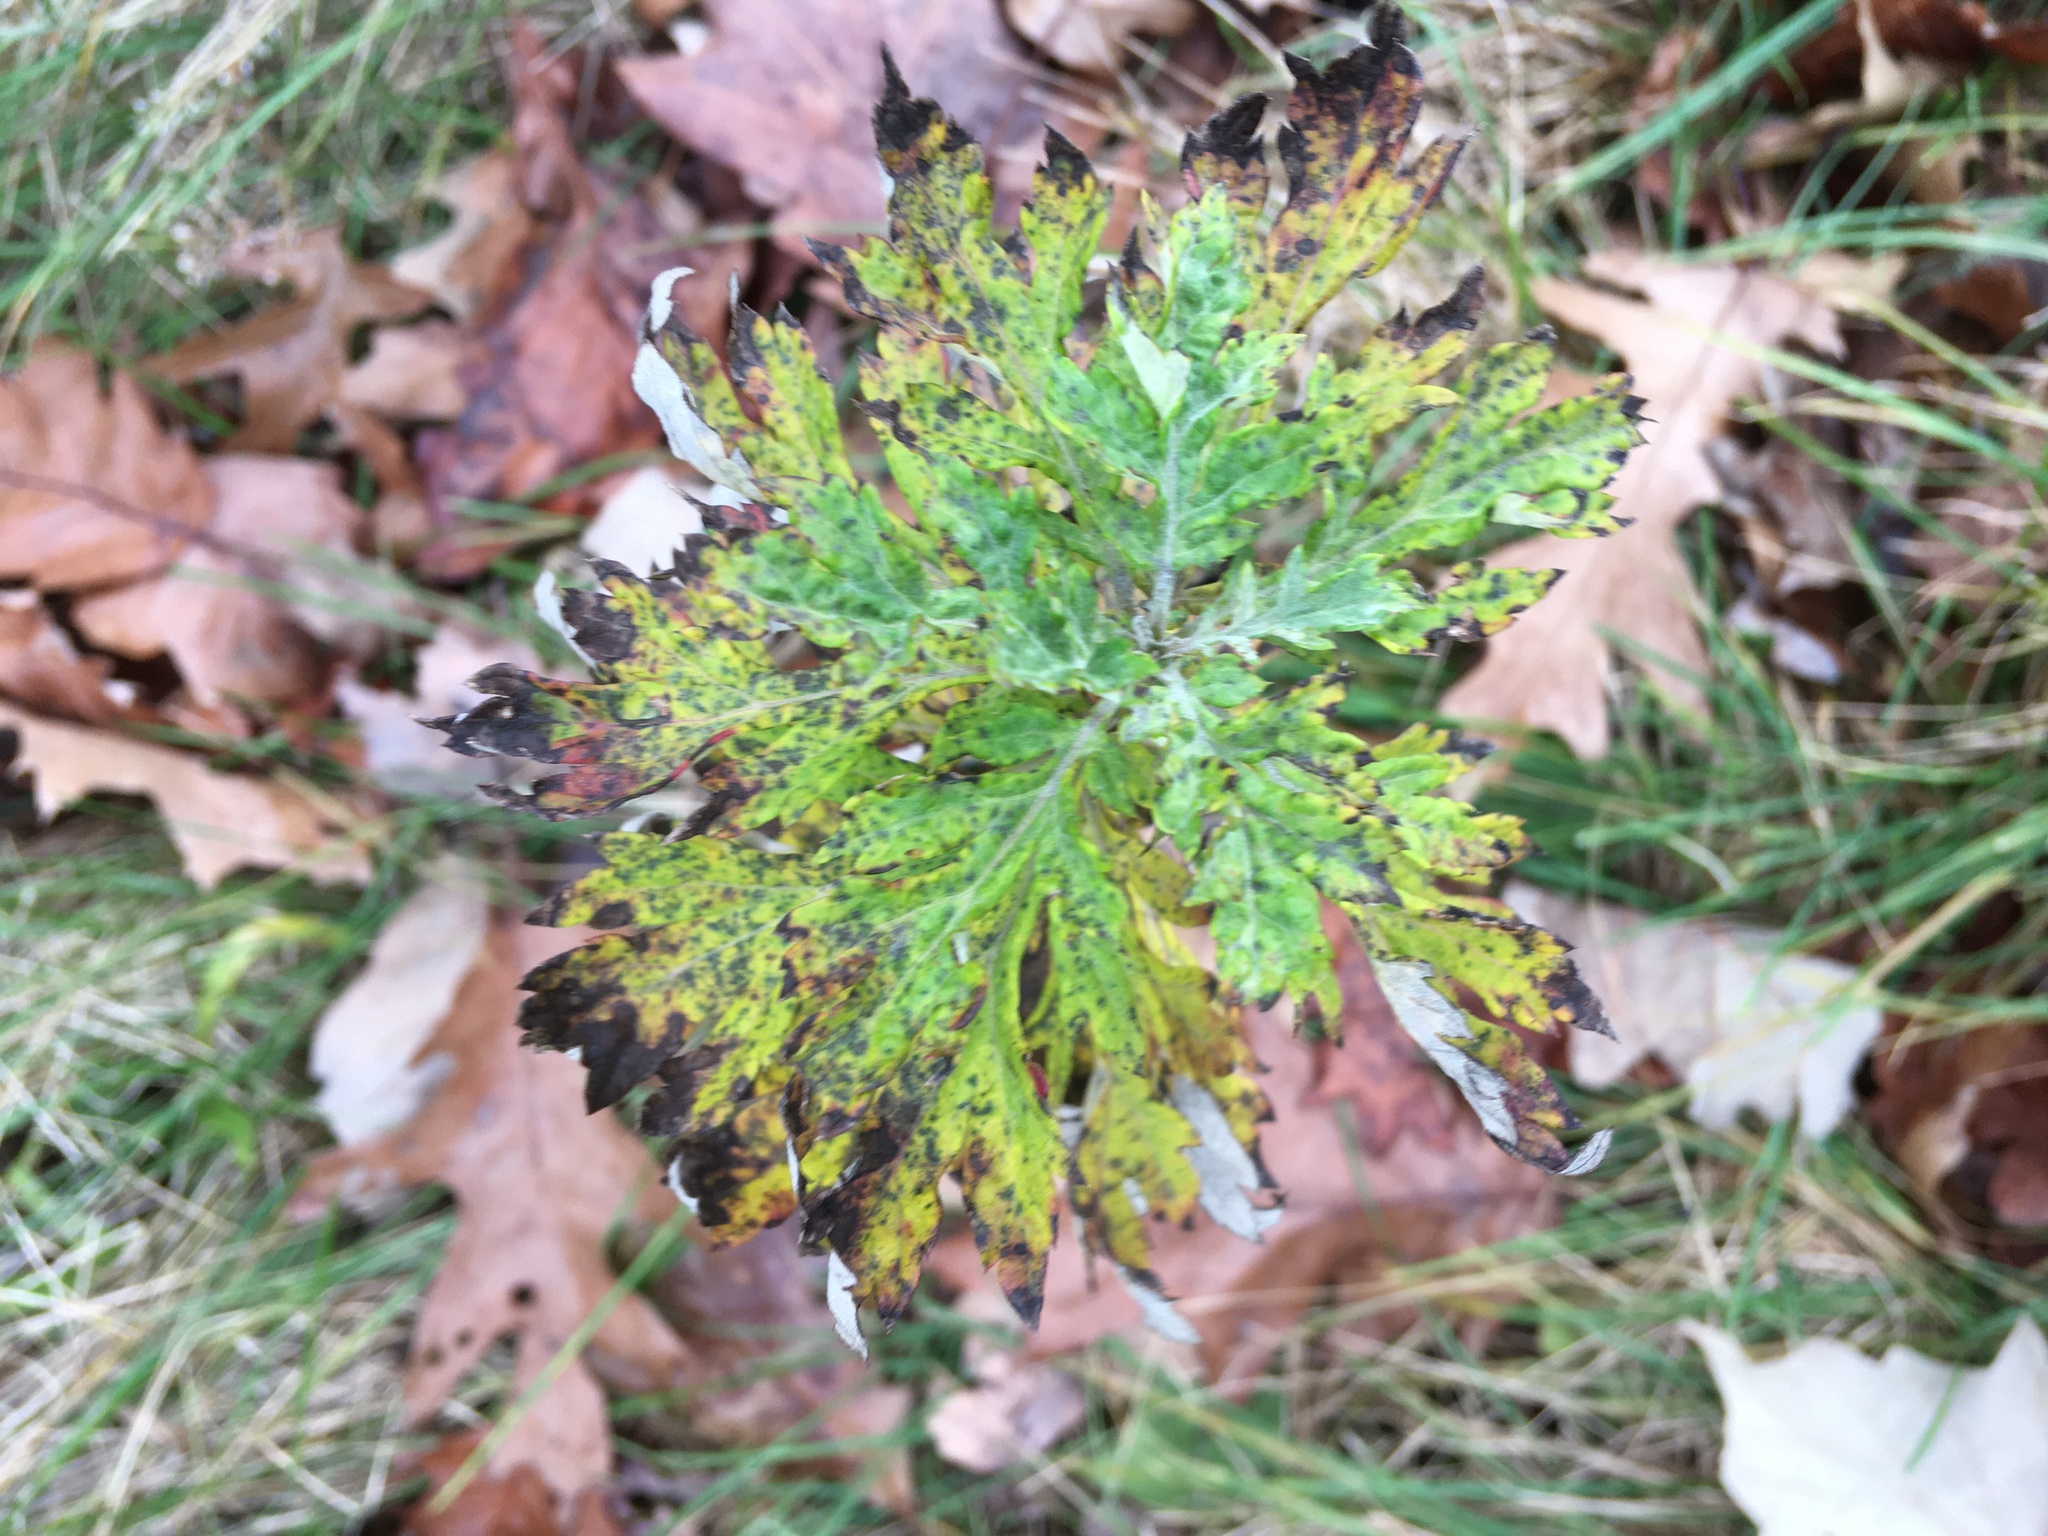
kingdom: Plantae
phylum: Tracheophyta
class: Magnoliopsida
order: Asterales
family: Asteraceae
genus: Artemisia
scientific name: Artemisia vulgaris
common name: Mugwort
